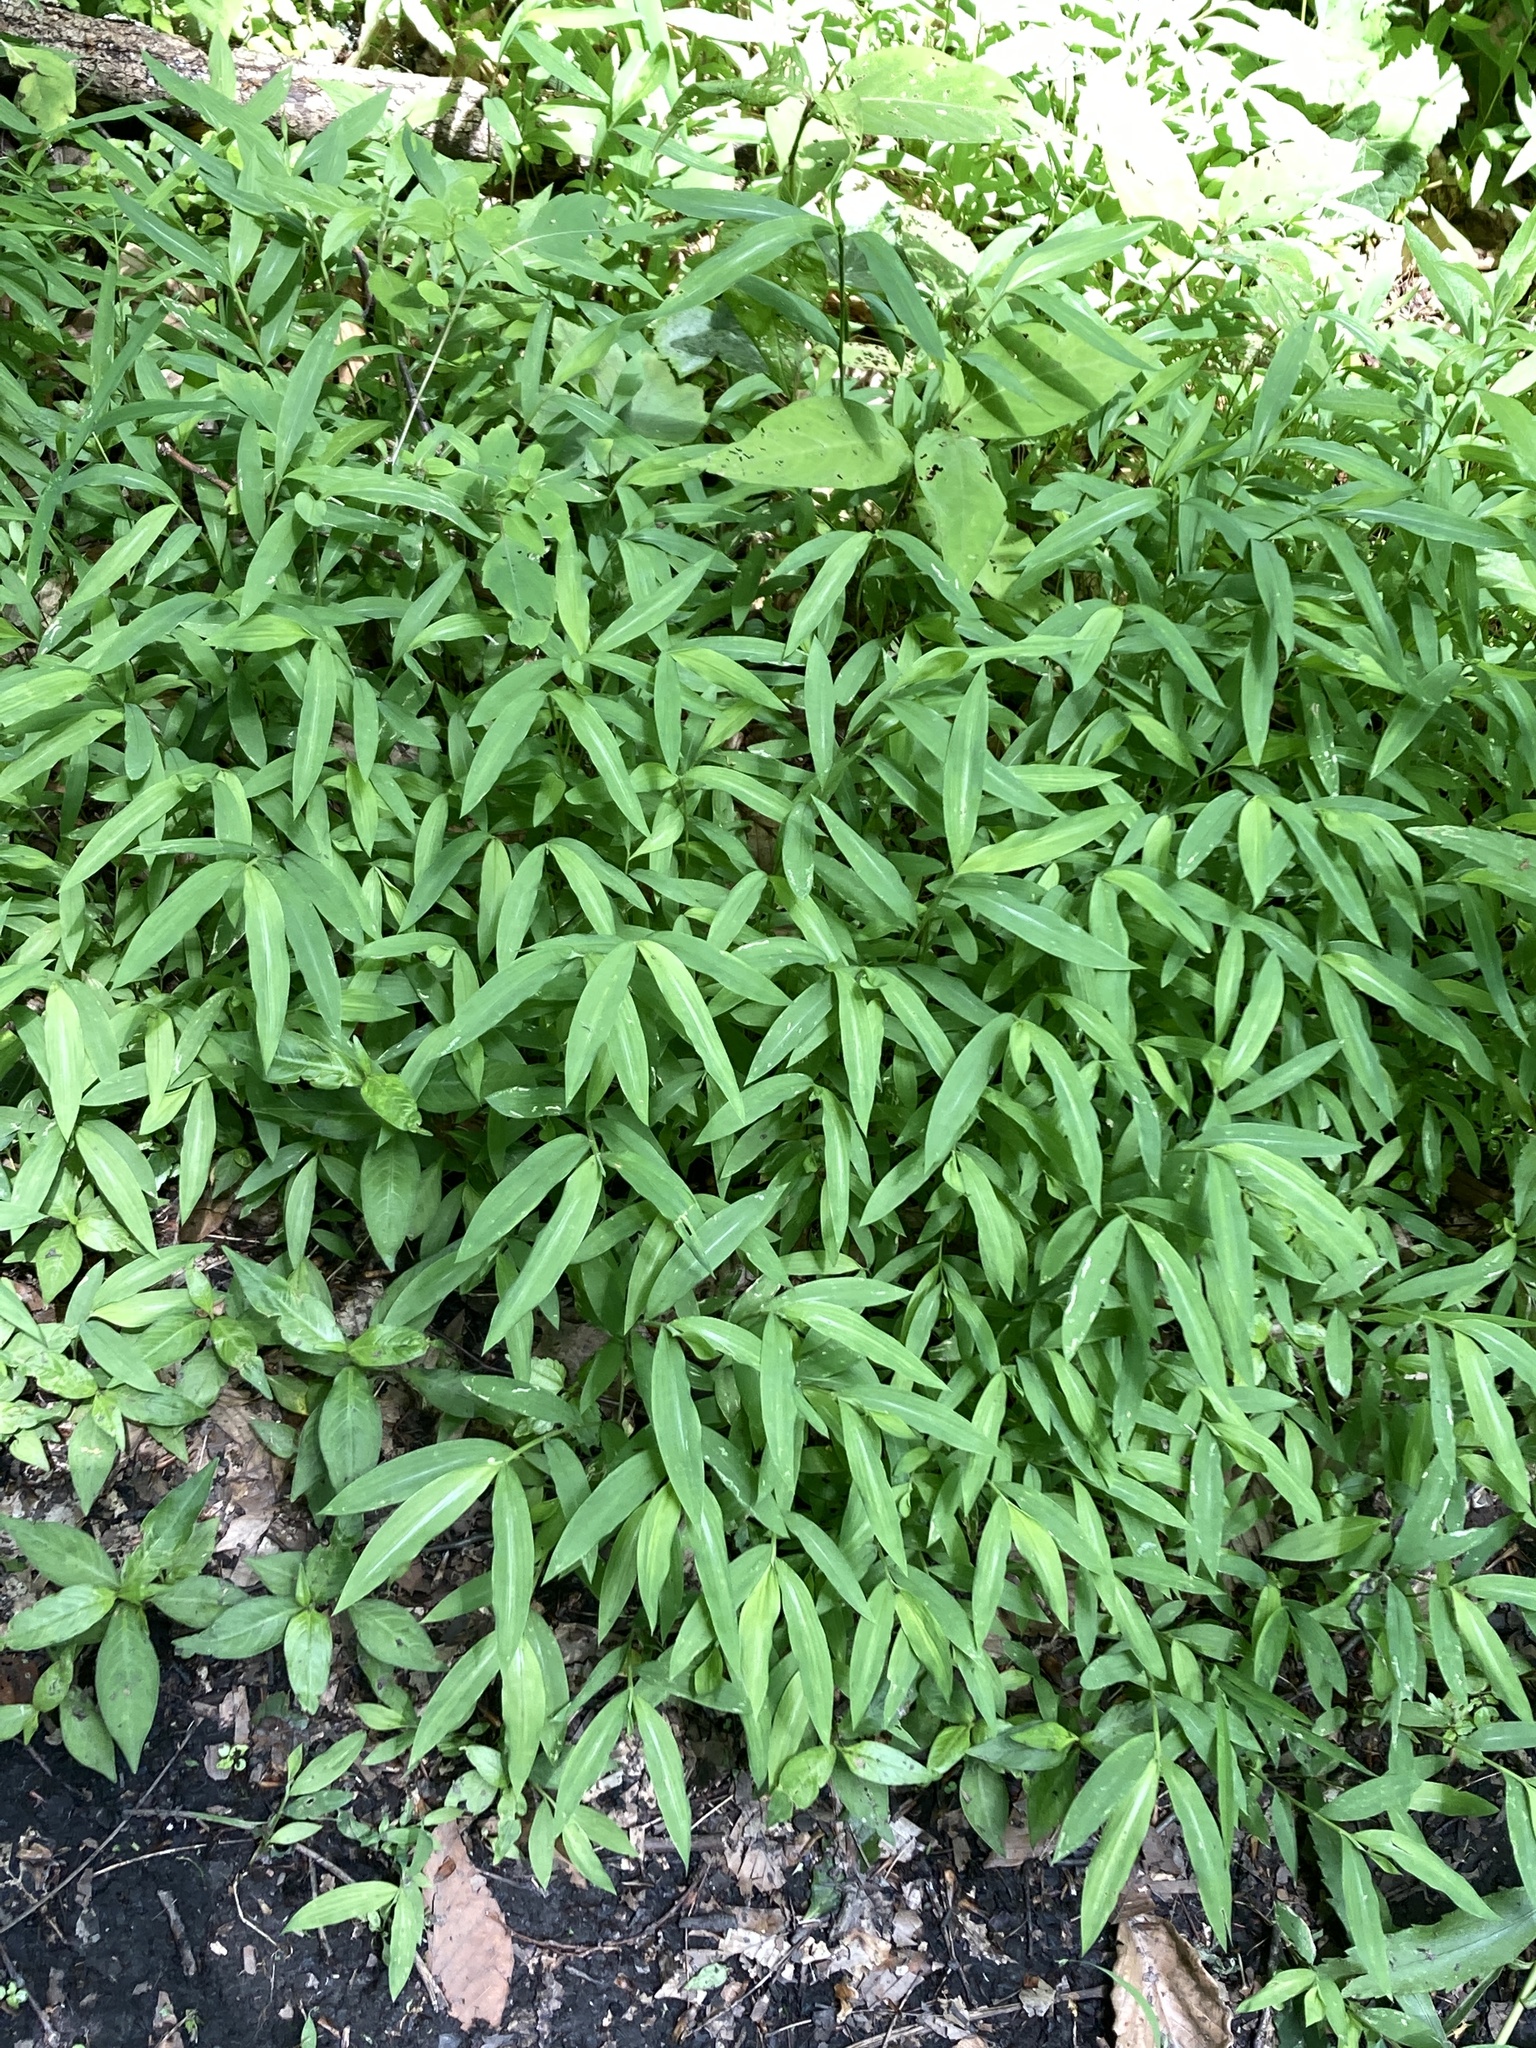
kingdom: Plantae
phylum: Tracheophyta
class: Liliopsida
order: Poales
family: Poaceae
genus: Microstegium
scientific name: Microstegium vimineum
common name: Japanese stiltgrass
